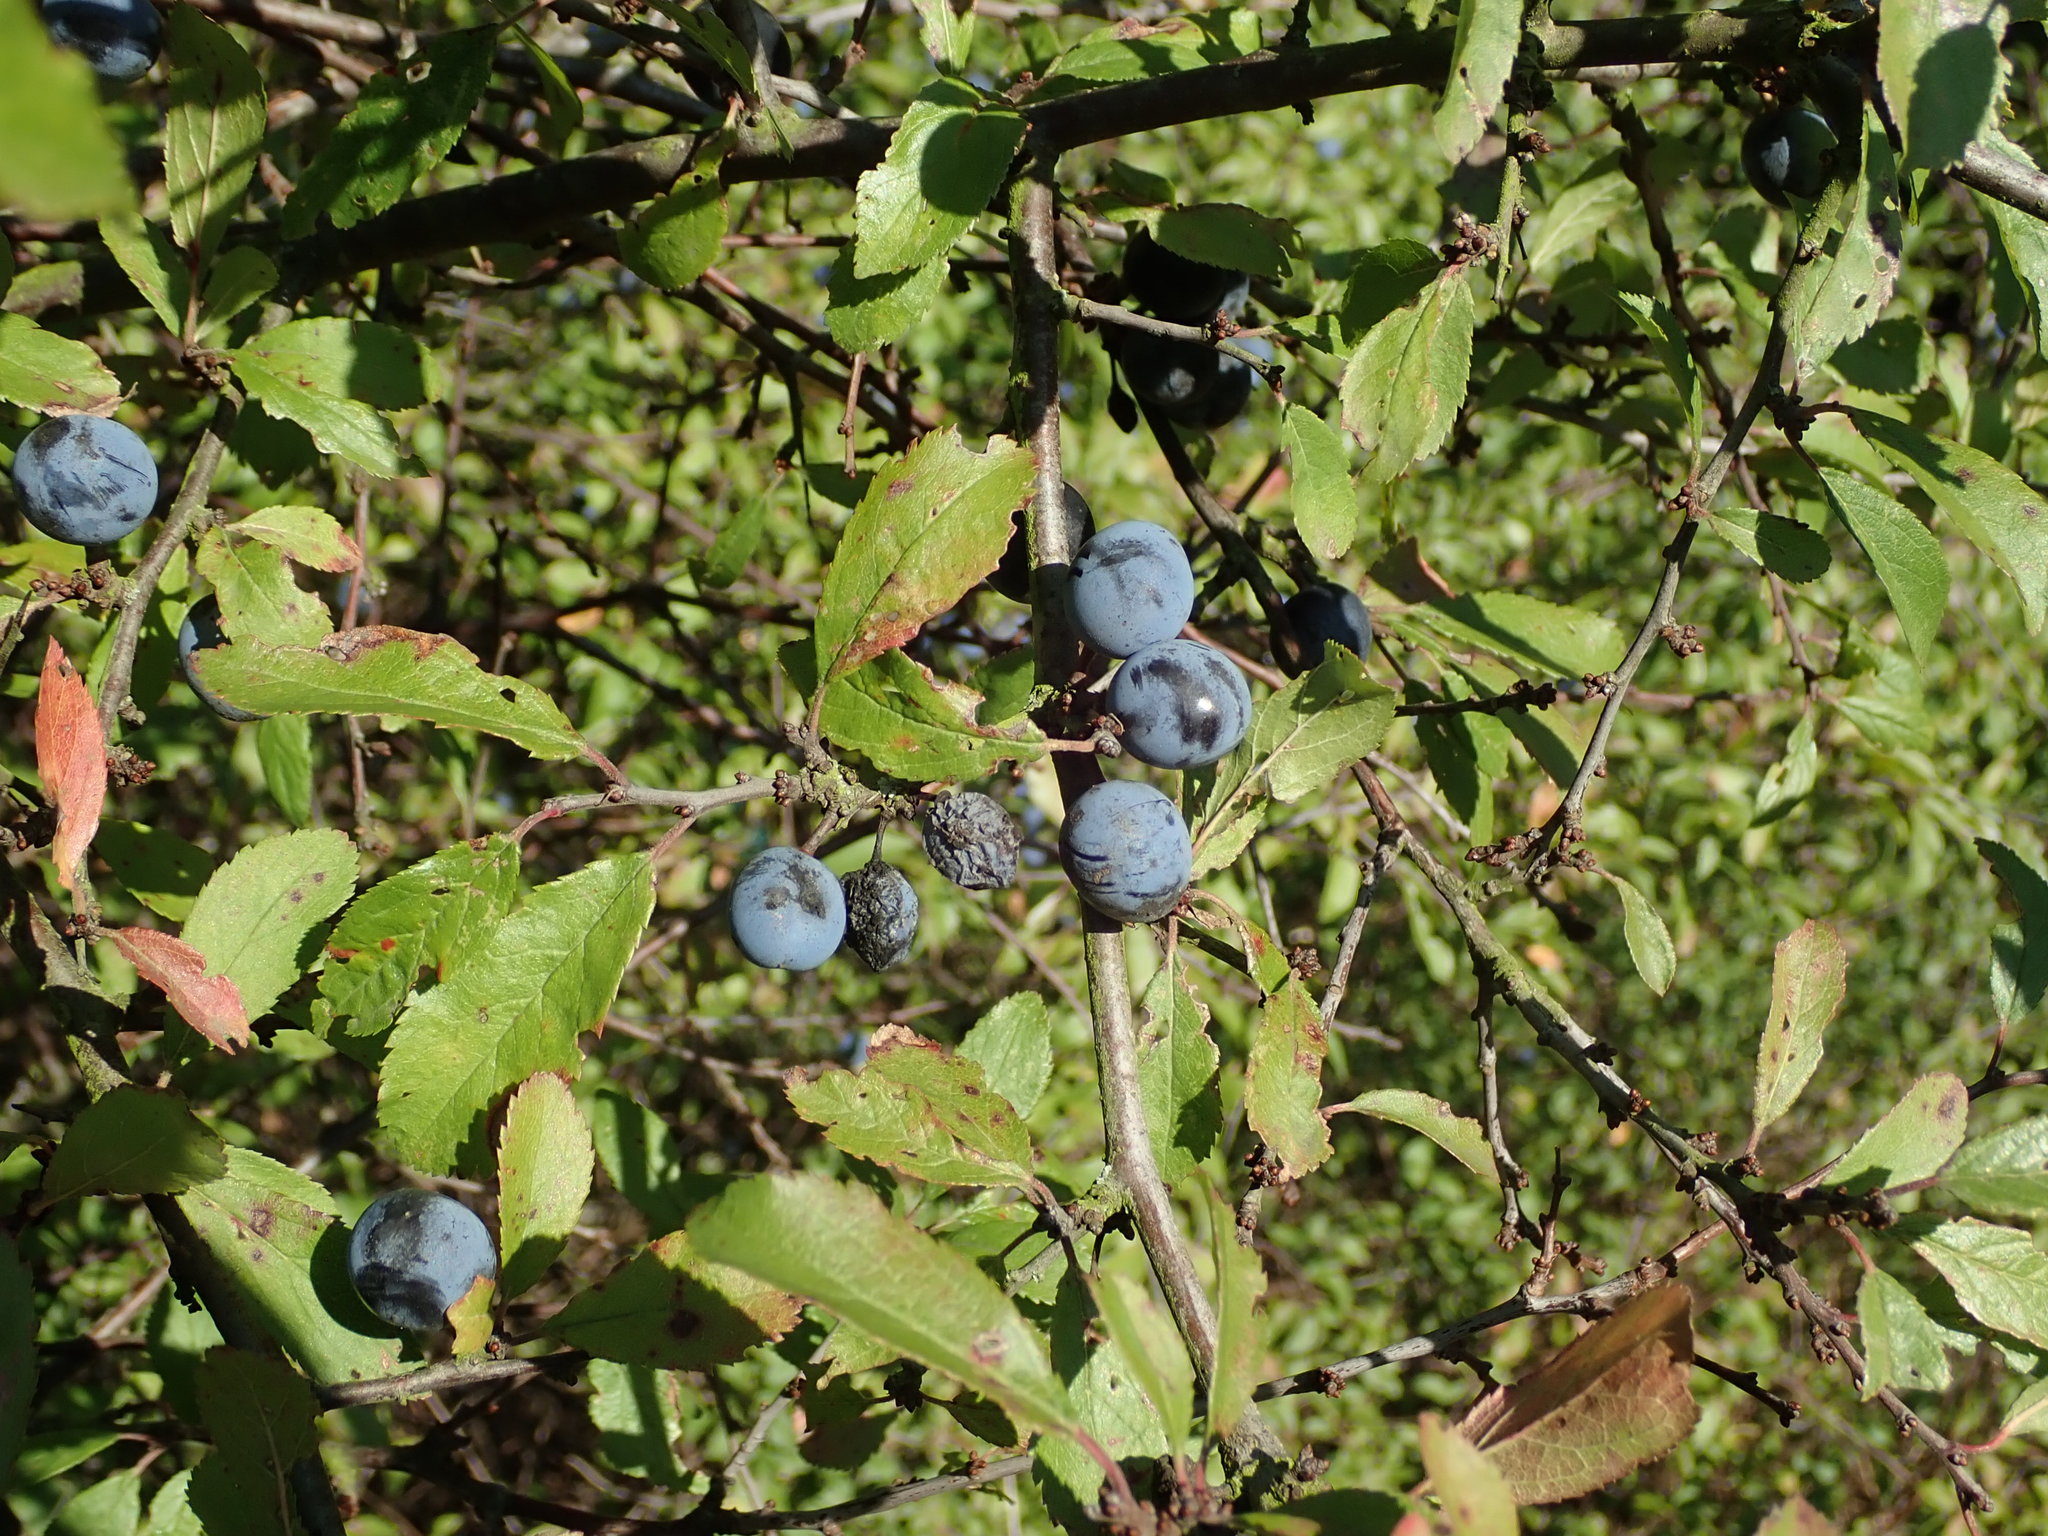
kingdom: Plantae
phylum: Tracheophyta
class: Magnoliopsida
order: Rosales
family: Rosaceae
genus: Prunus
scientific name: Prunus spinosa
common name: Blackthorn
